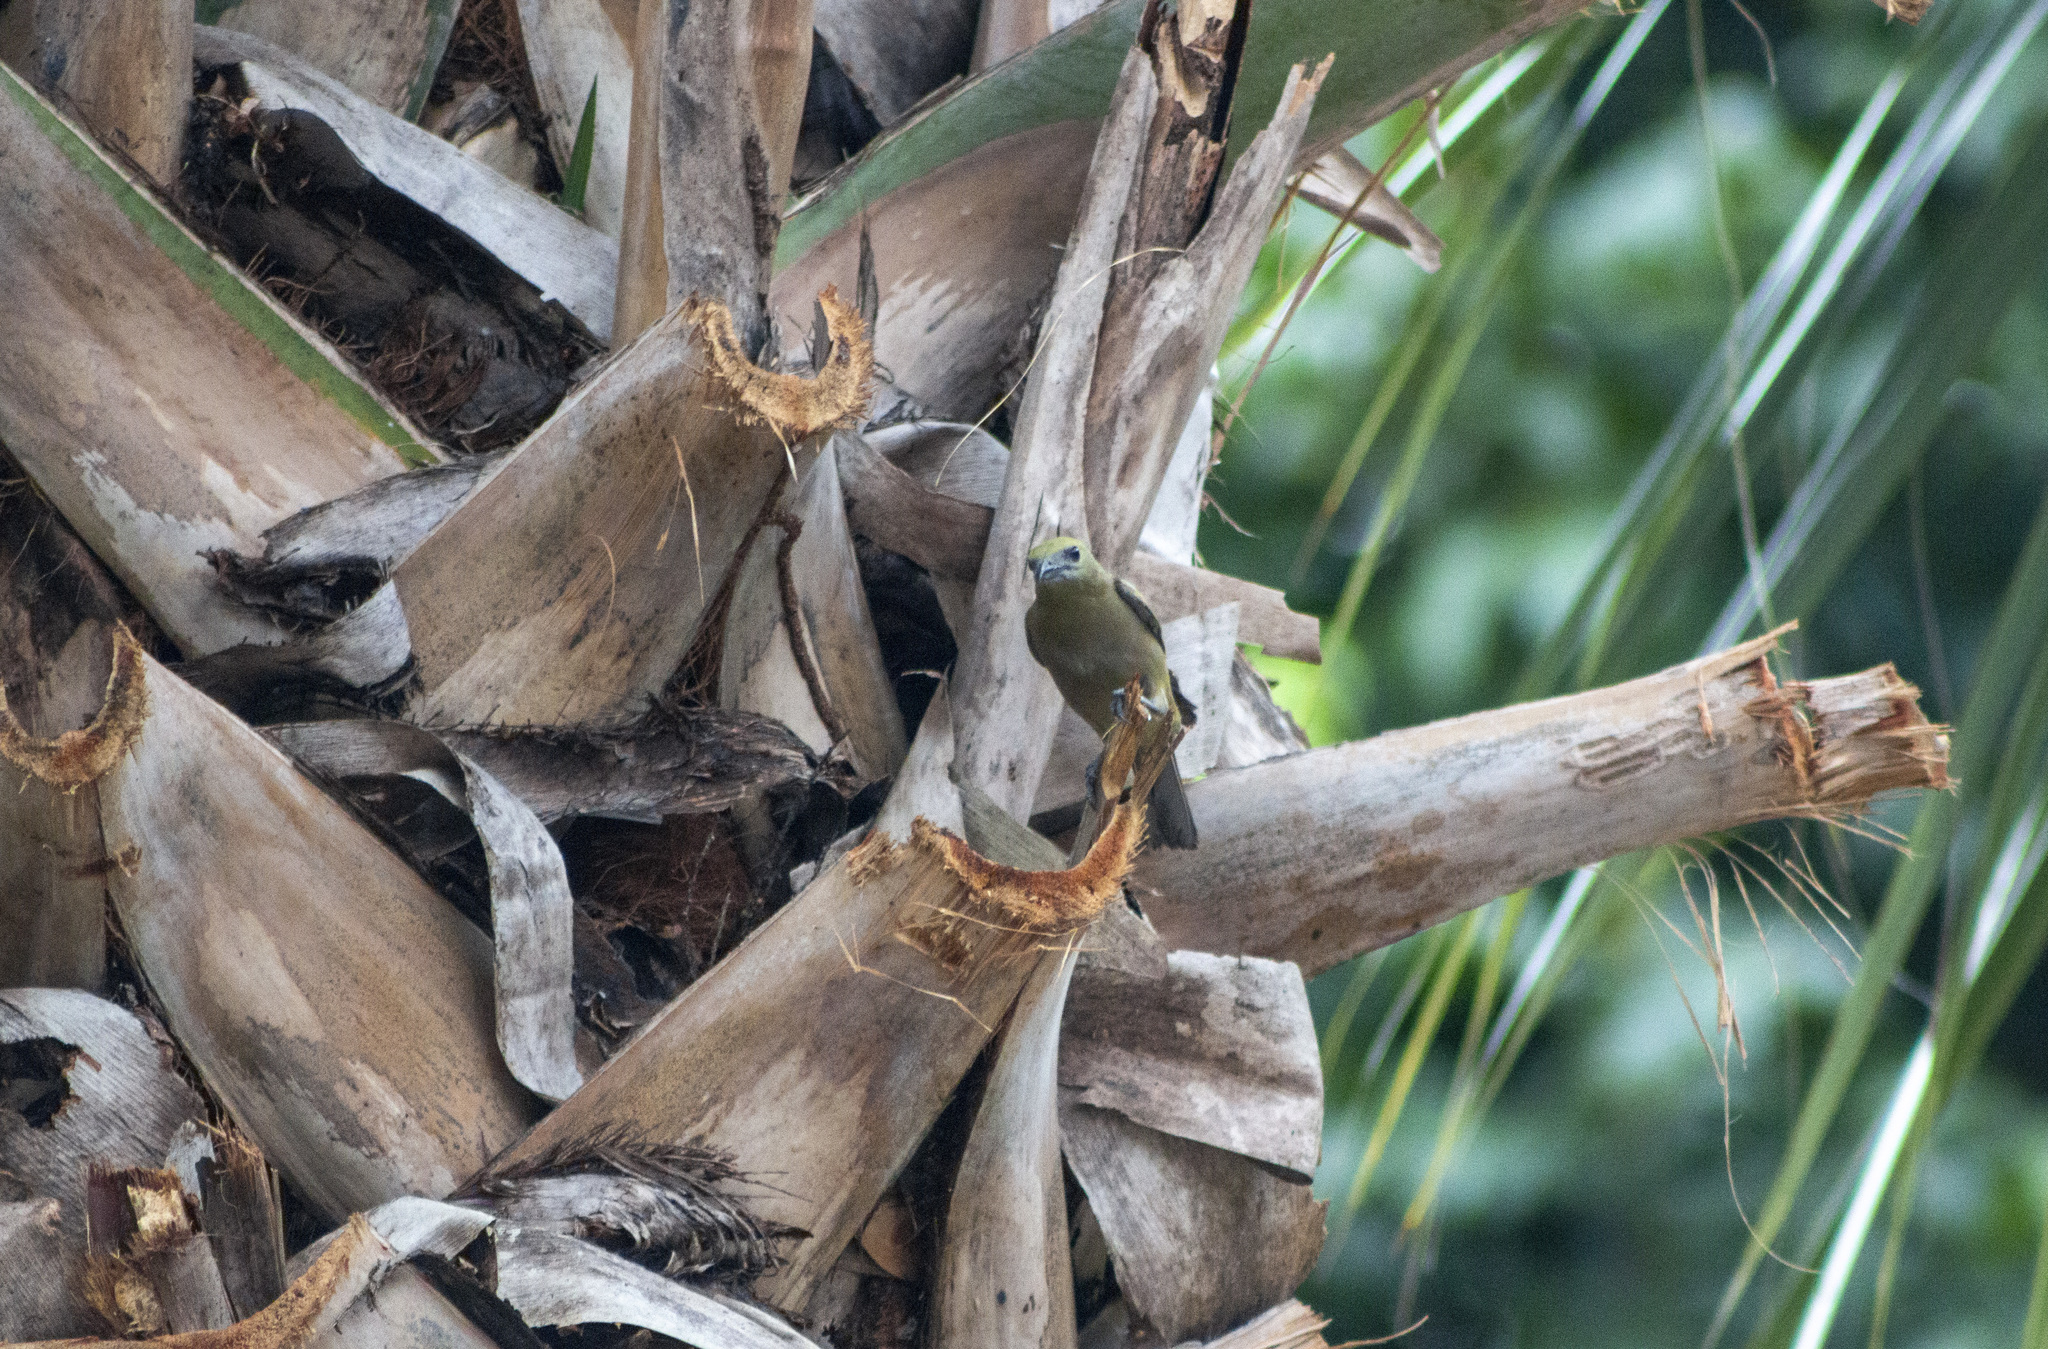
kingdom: Animalia
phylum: Chordata
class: Aves
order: Passeriformes
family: Thraupidae
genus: Thraupis
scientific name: Thraupis palmarum
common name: Palm tanager
